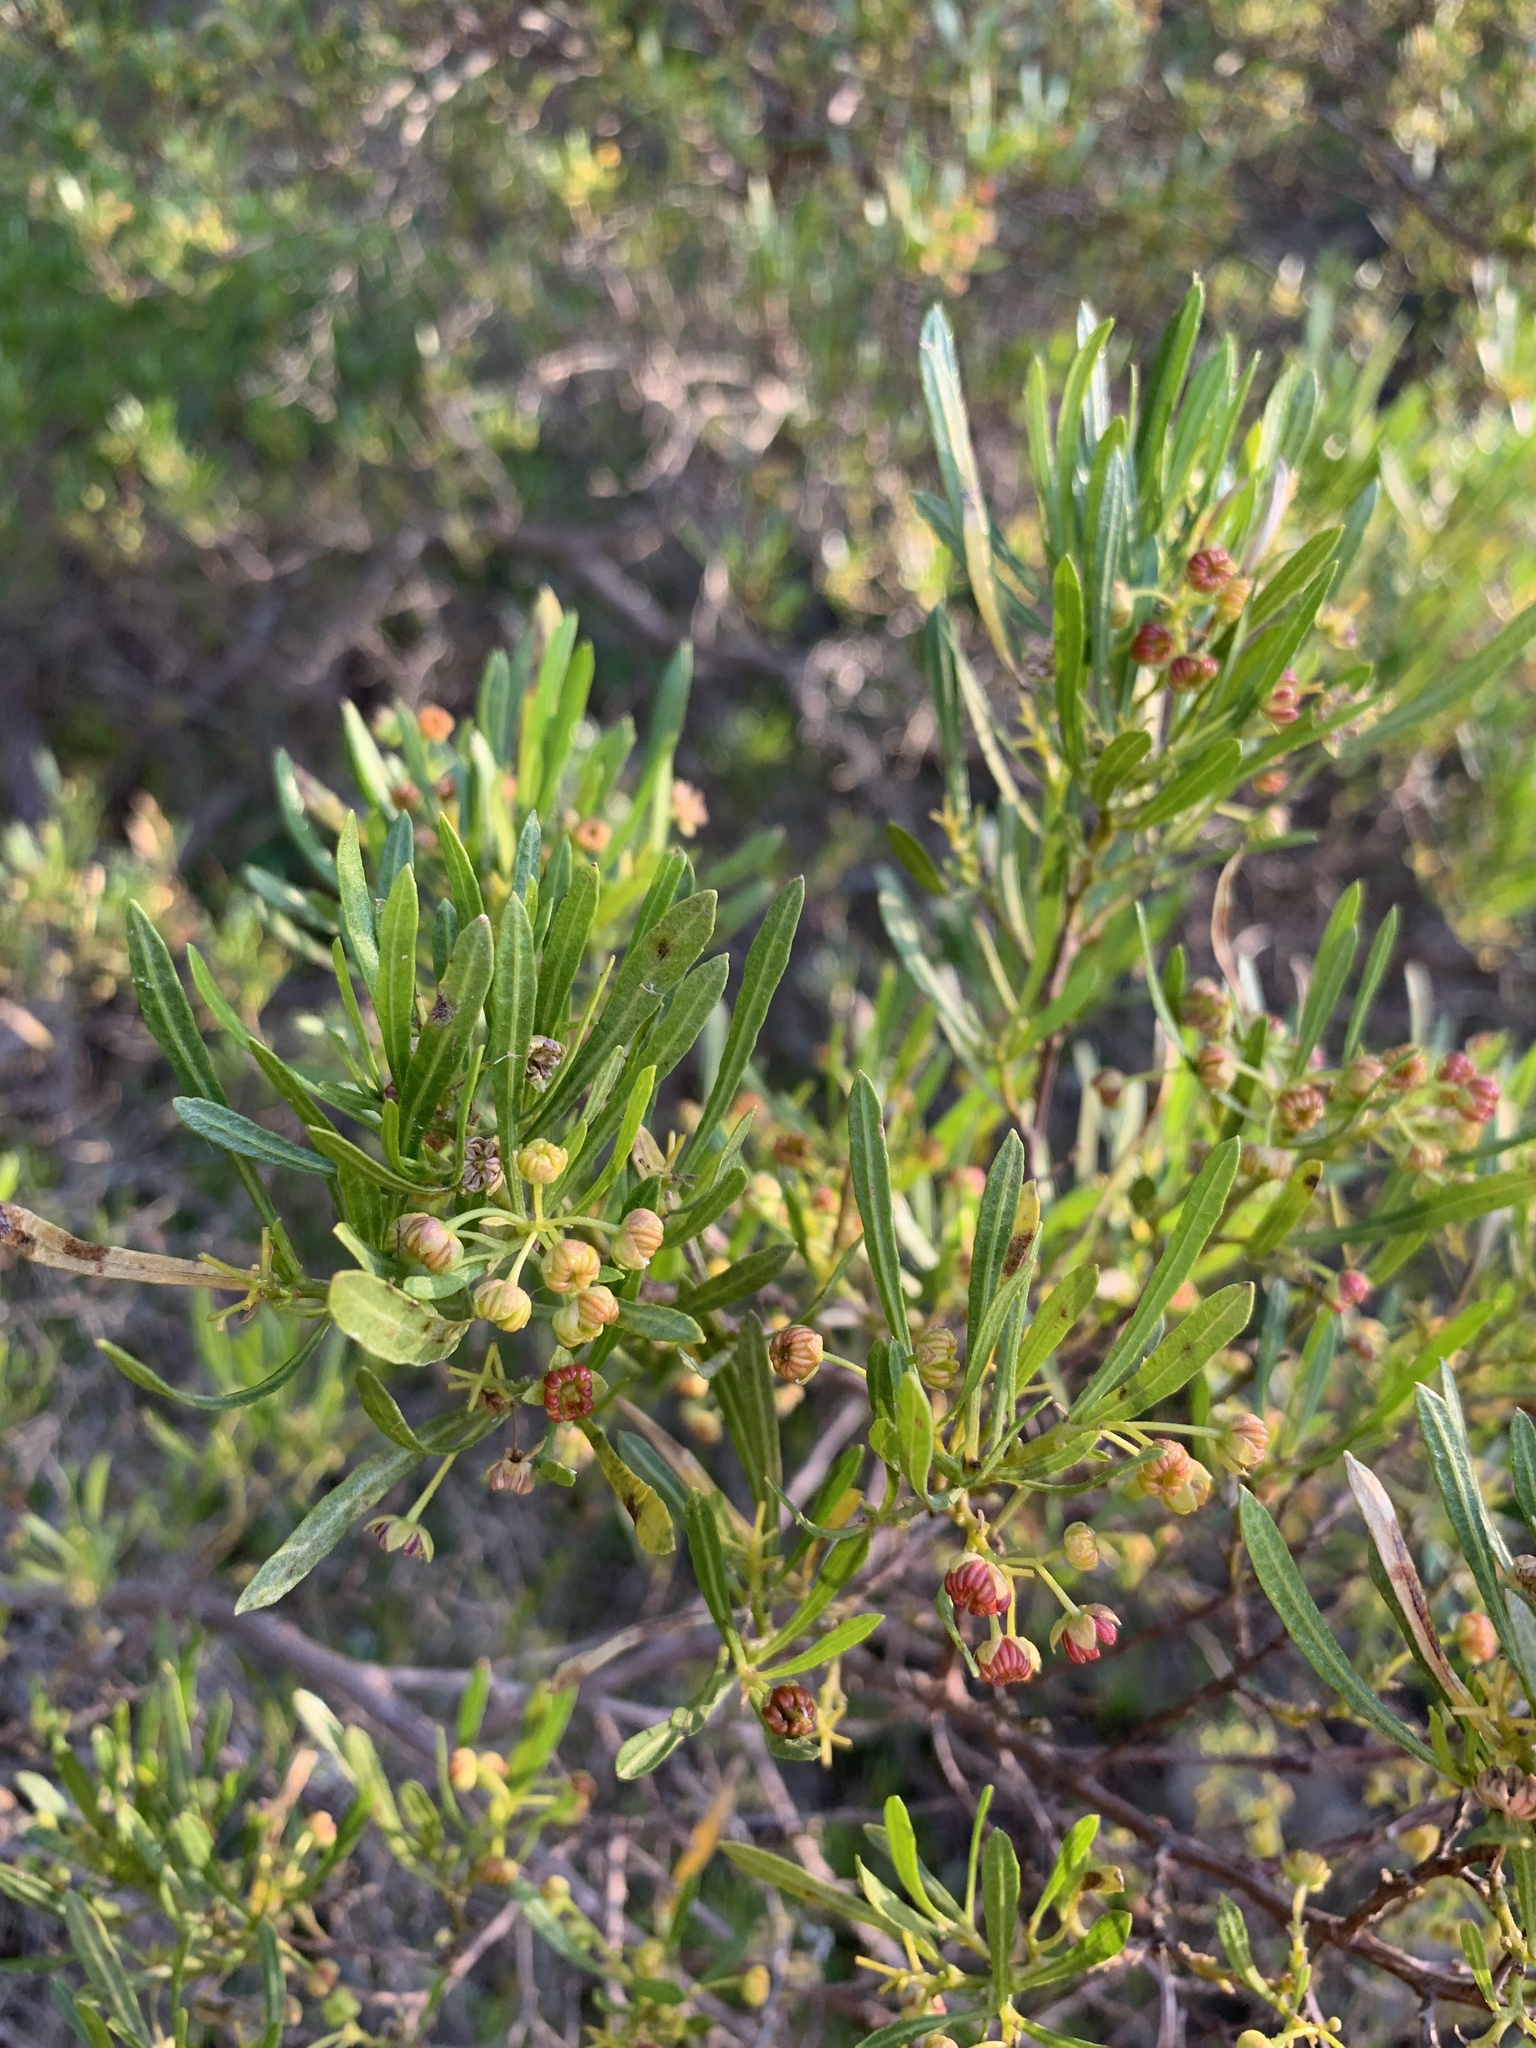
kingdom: Plantae
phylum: Tracheophyta
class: Magnoliopsida
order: Sapindales
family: Sapindaceae
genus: Dodonaea
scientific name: Dodonaea viscosa
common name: Hopbush
